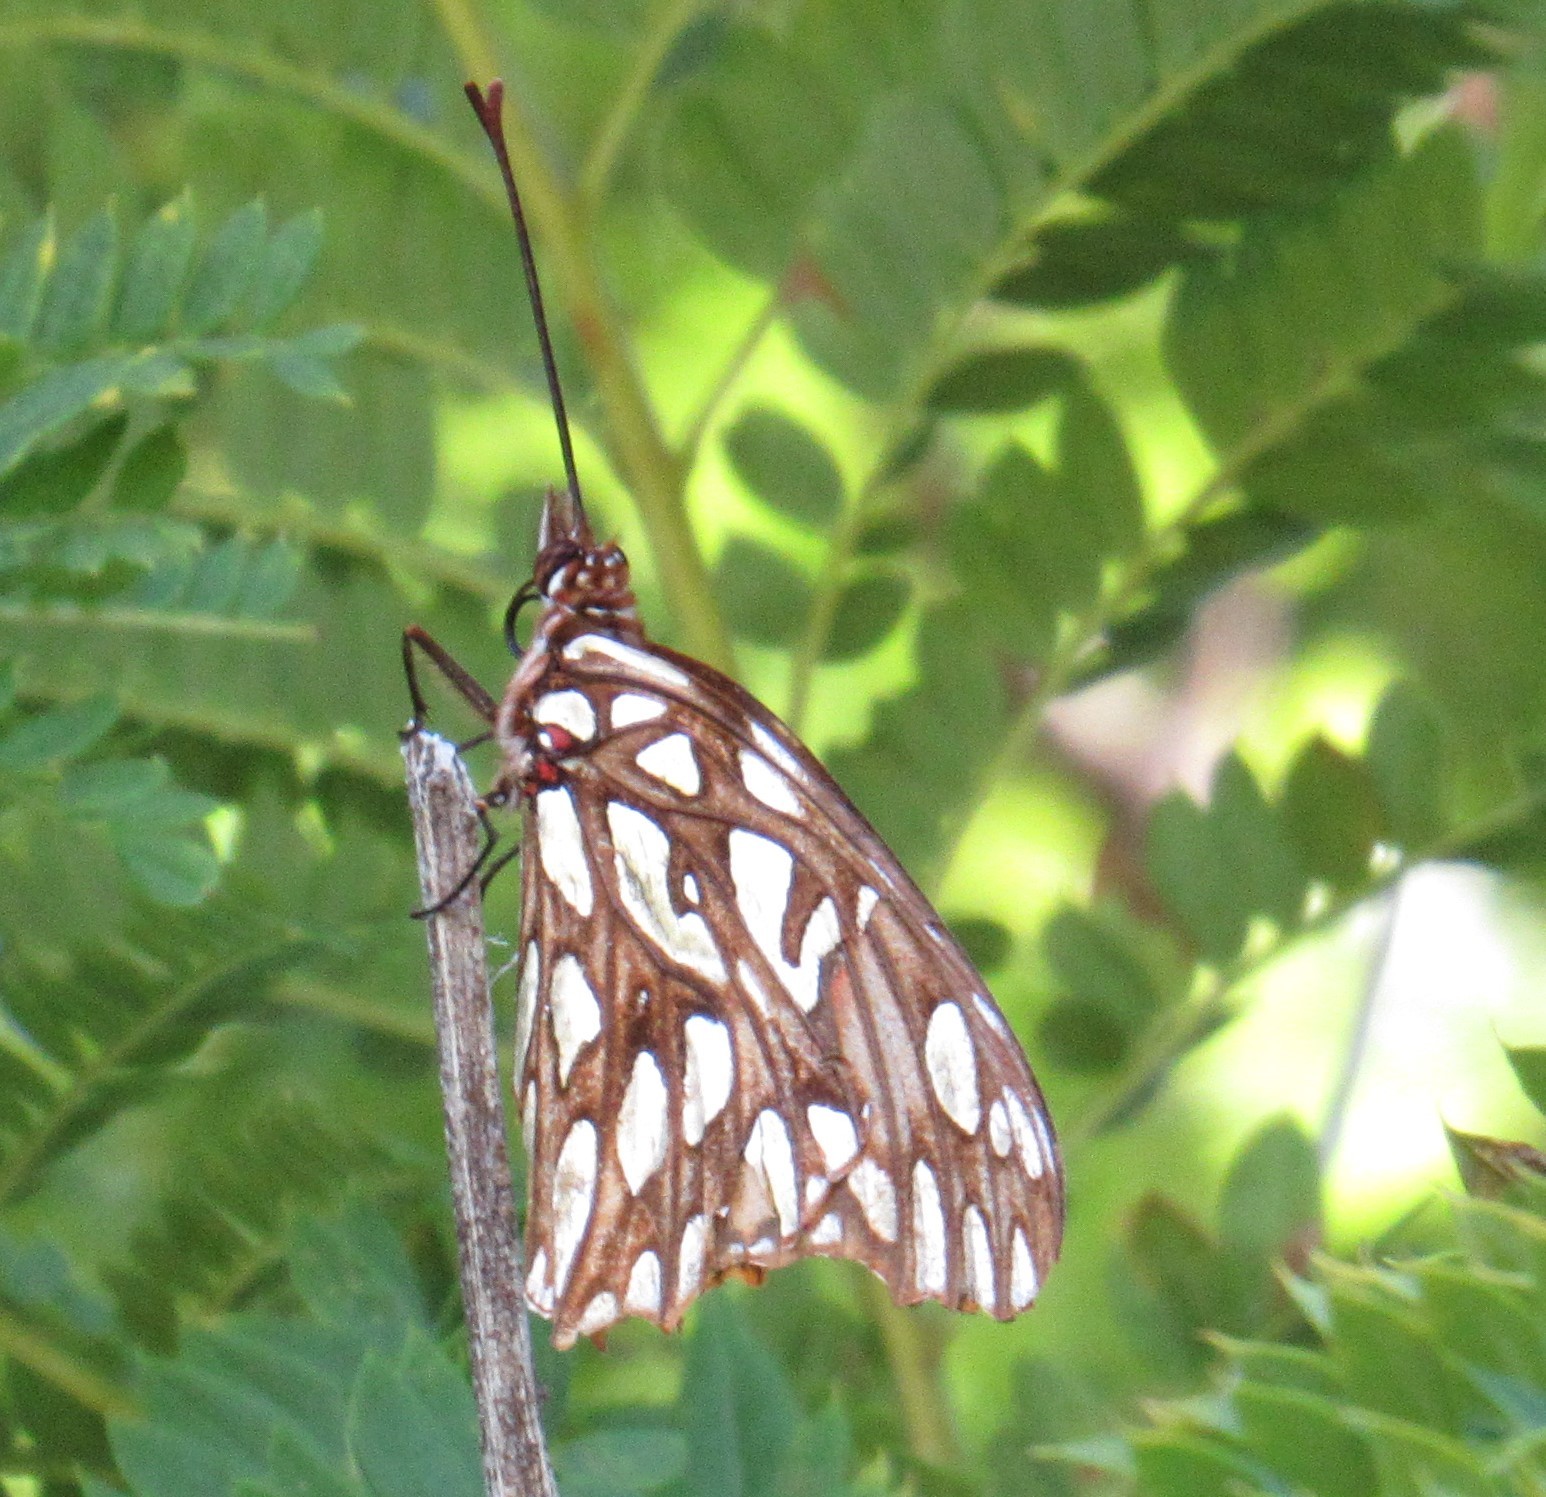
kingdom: Animalia
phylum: Arthropoda
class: Insecta
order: Lepidoptera
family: Nymphalidae
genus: Dione
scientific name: Dione moneta
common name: Mexican silverspot
